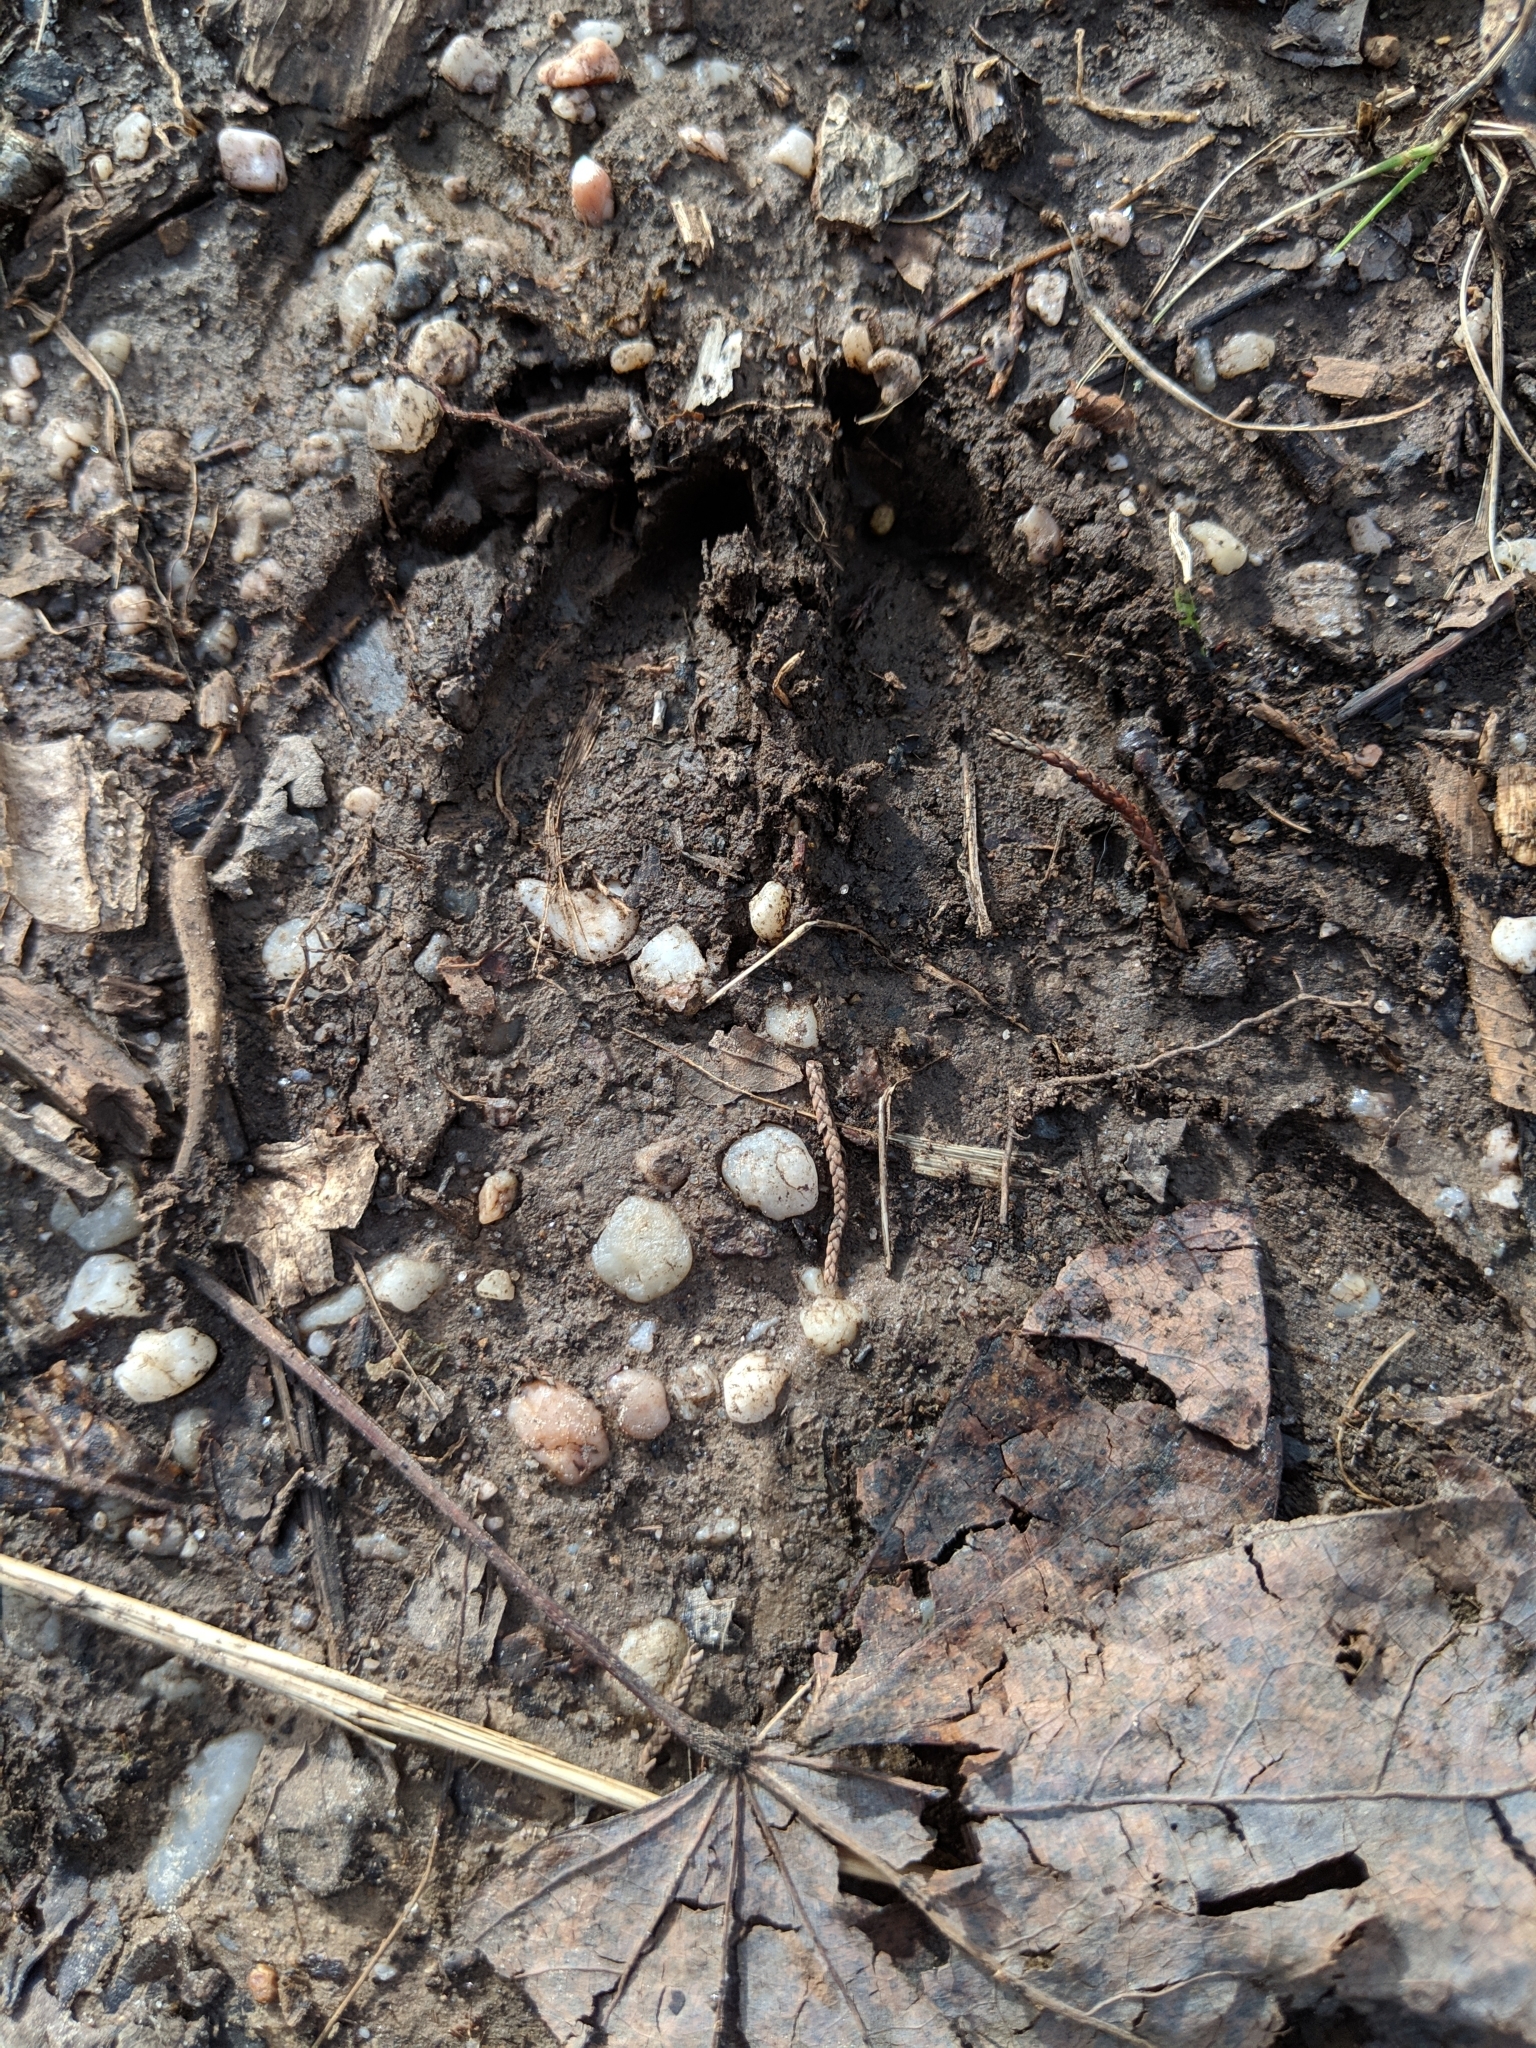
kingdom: Animalia
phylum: Chordata
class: Mammalia
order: Artiodactyla
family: Cervidae
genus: Odocoileus
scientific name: Odocoileus virginianus
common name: White-tailed deer
